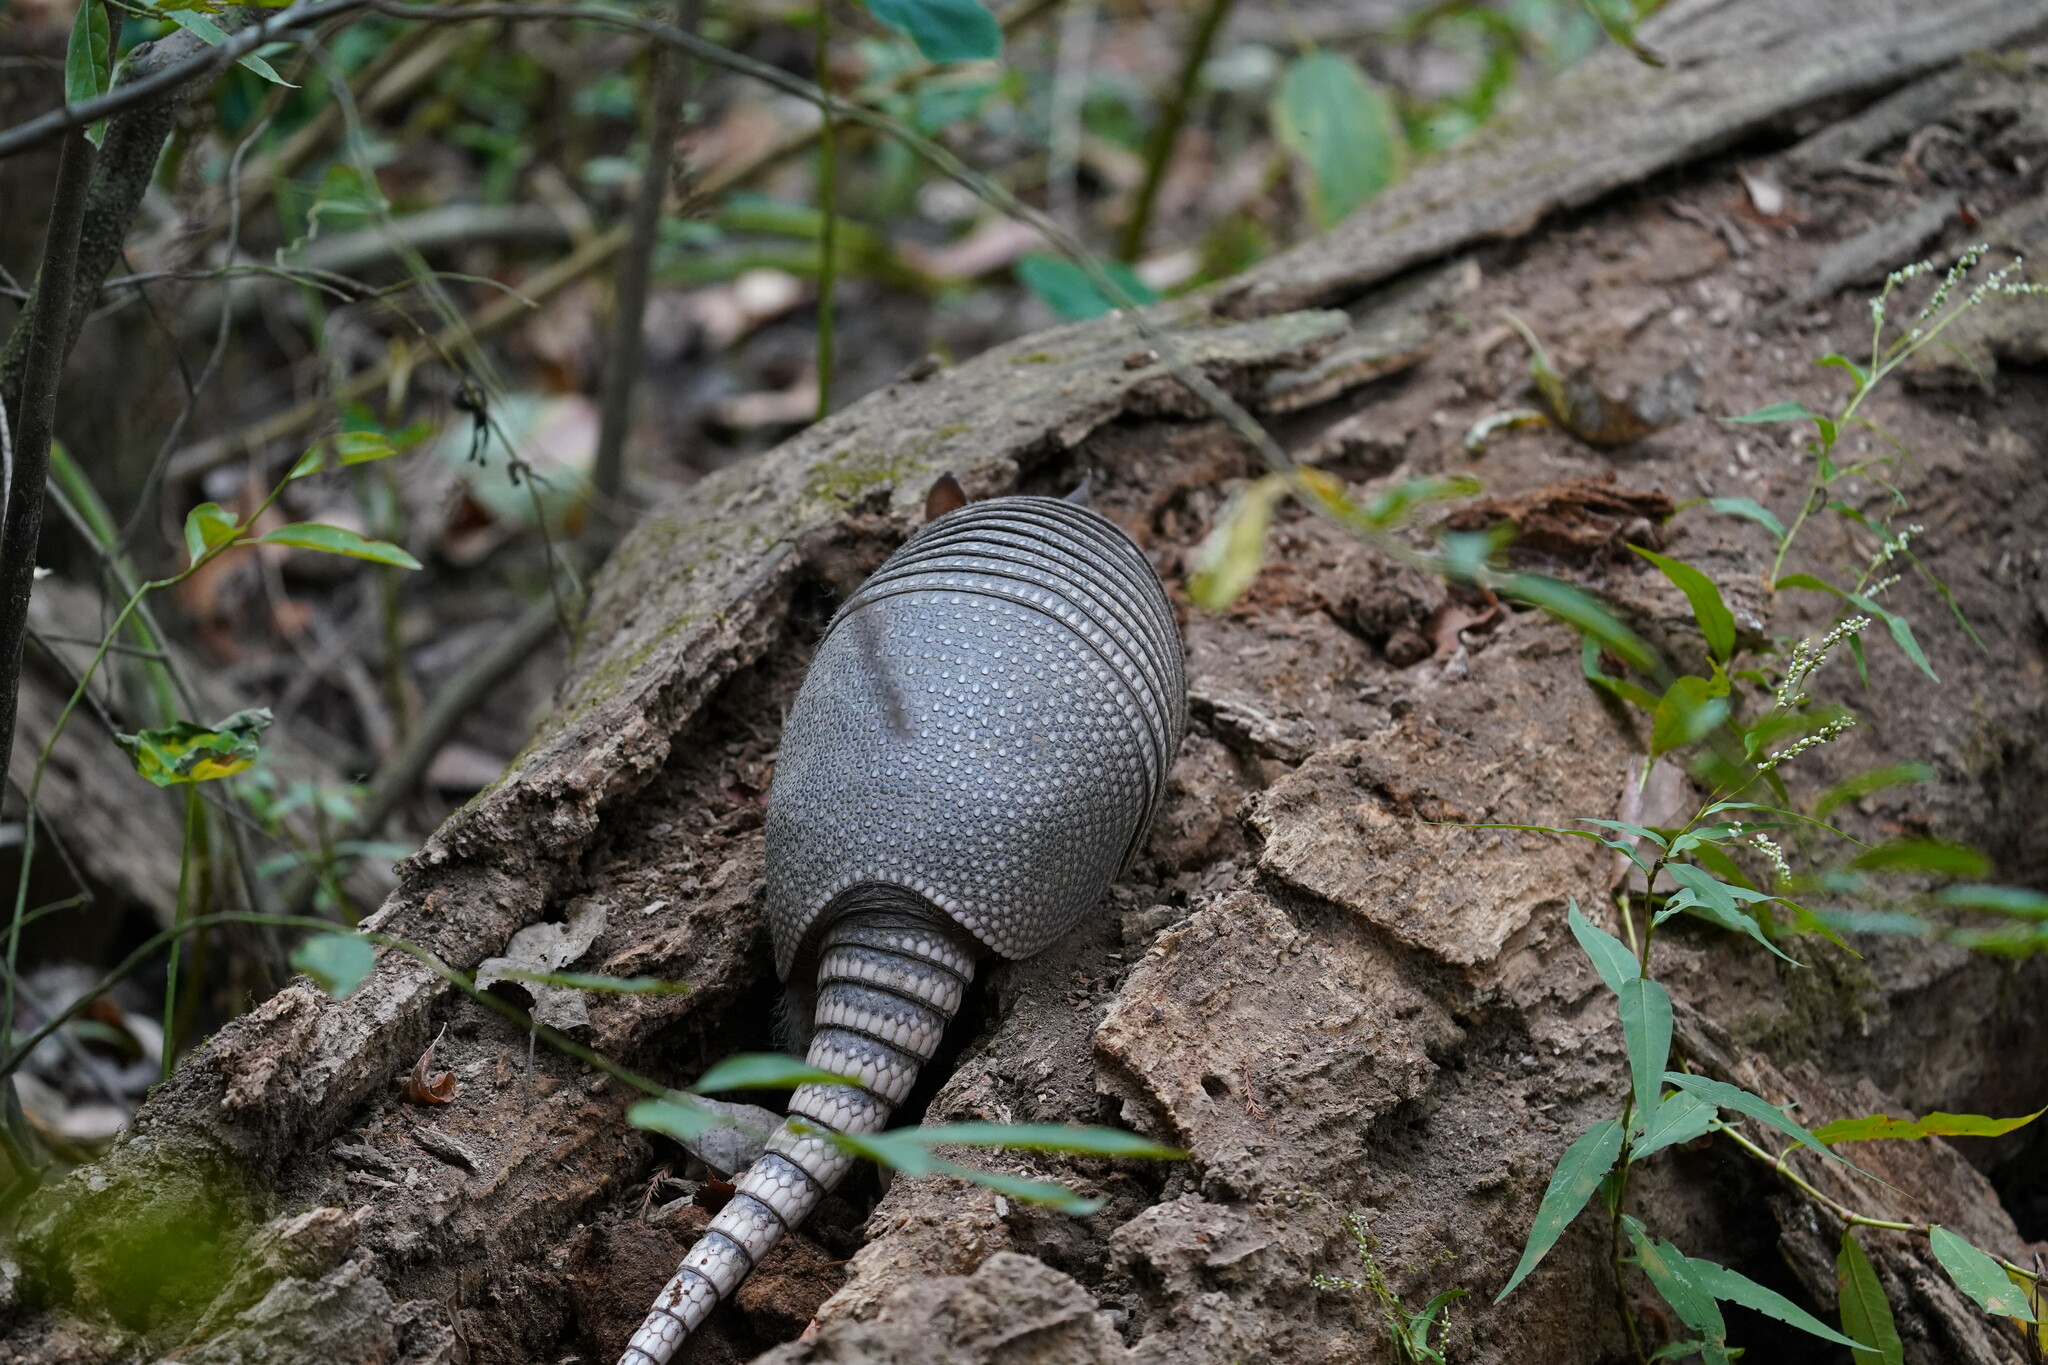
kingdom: Animalia
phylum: Chordata
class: Mammalia
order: Cingulata
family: Dasypodidae
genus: Dasypus
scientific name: Dasypus novemcinctus
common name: Nine-banded armadillo
